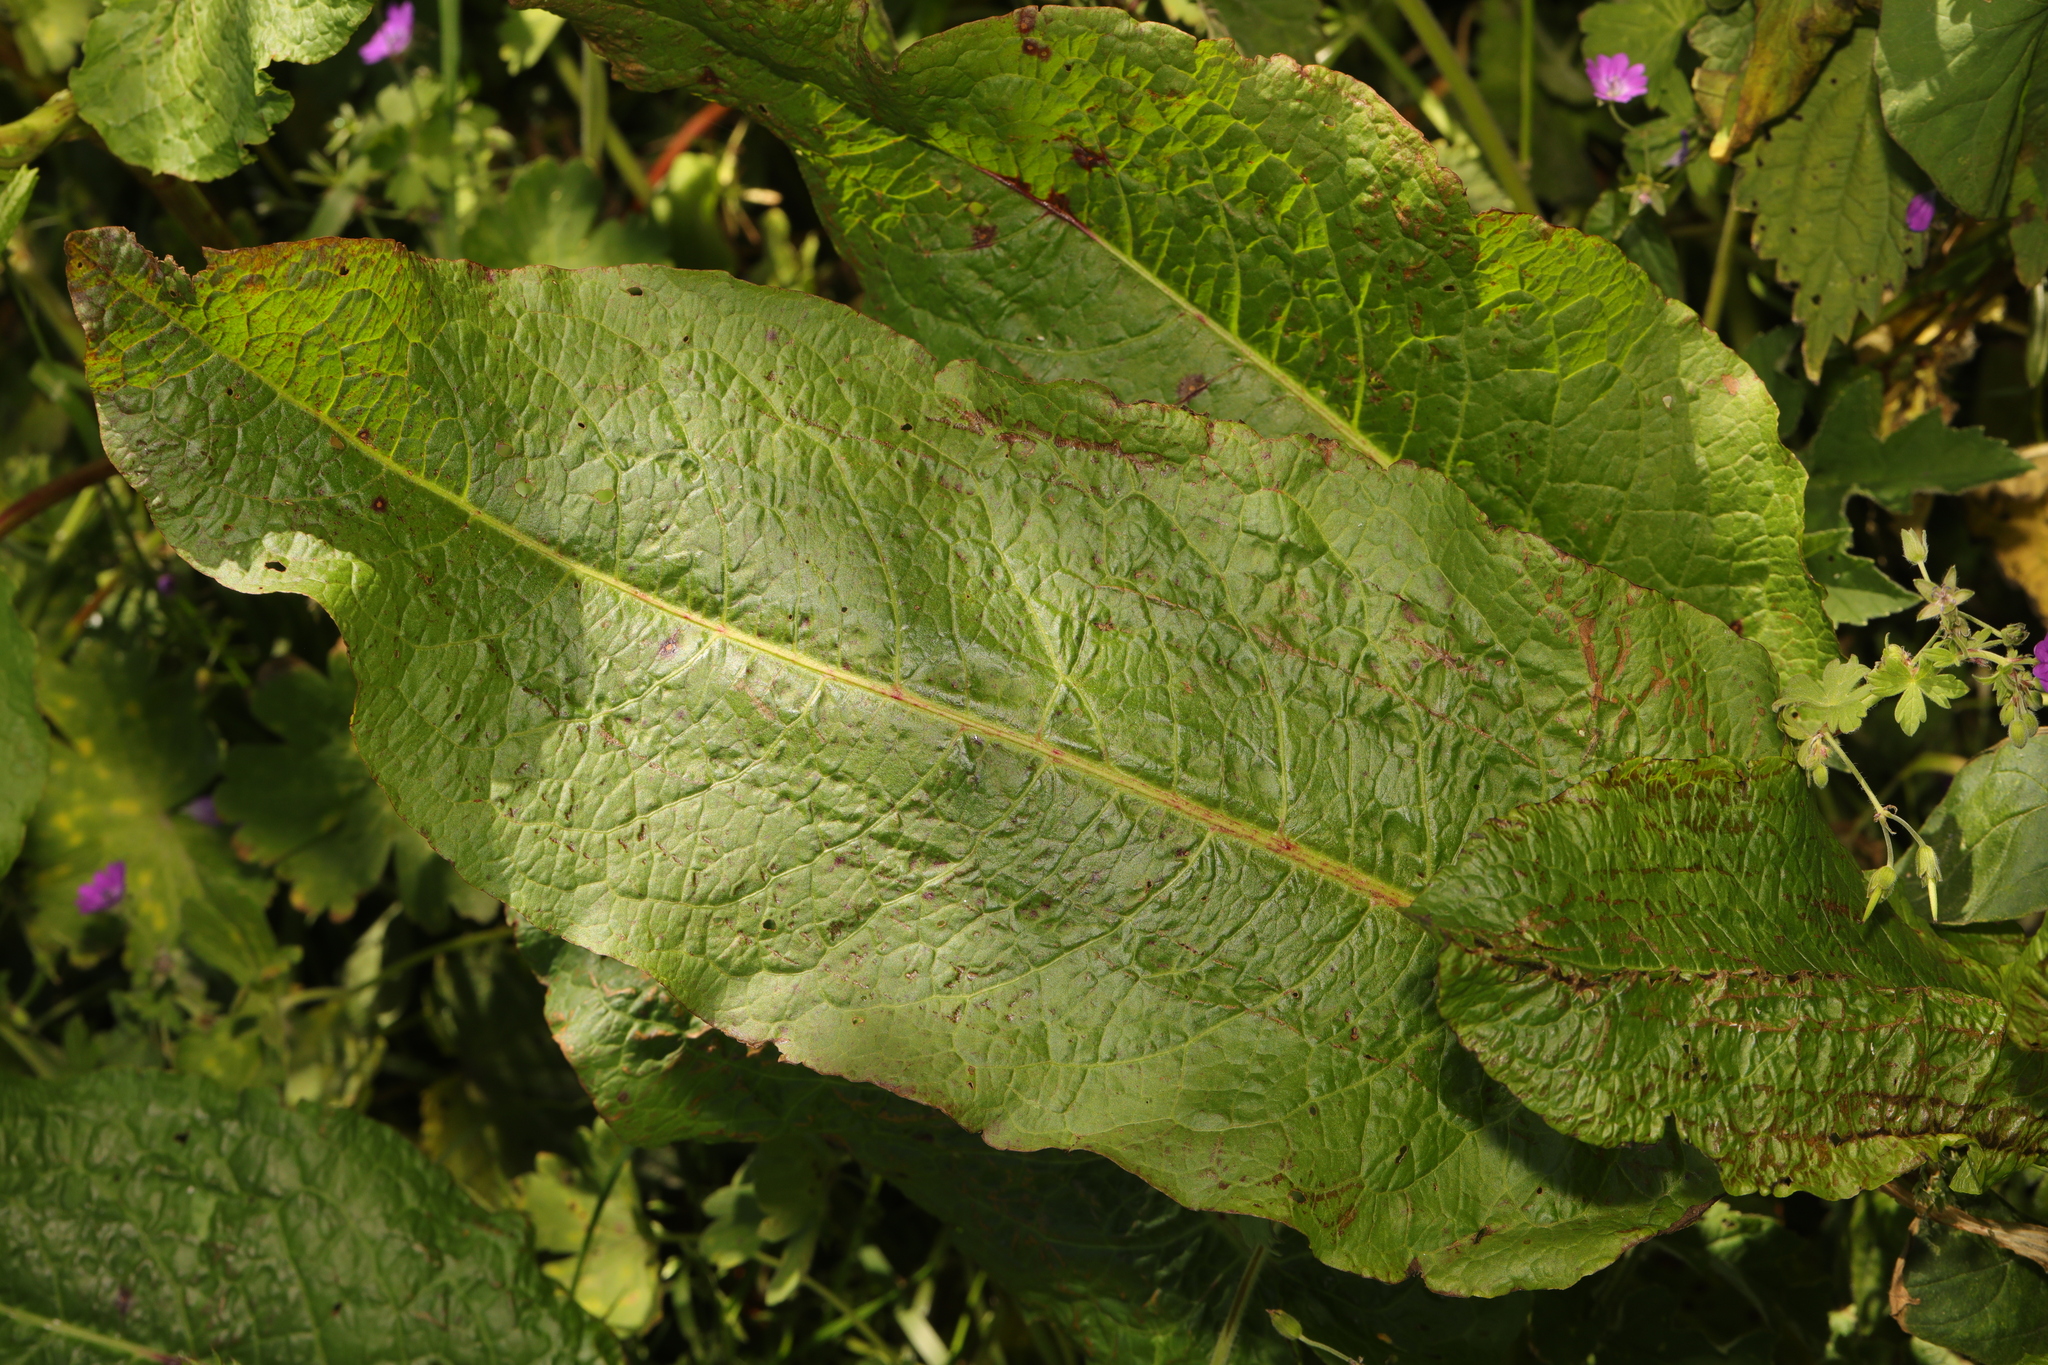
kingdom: Plantae
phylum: Tracheophyta
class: Magnoliopsida
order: Caryophyllales
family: Polygonaceae
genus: Rumex
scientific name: Rumex obtusifolius
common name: Bitter dock
